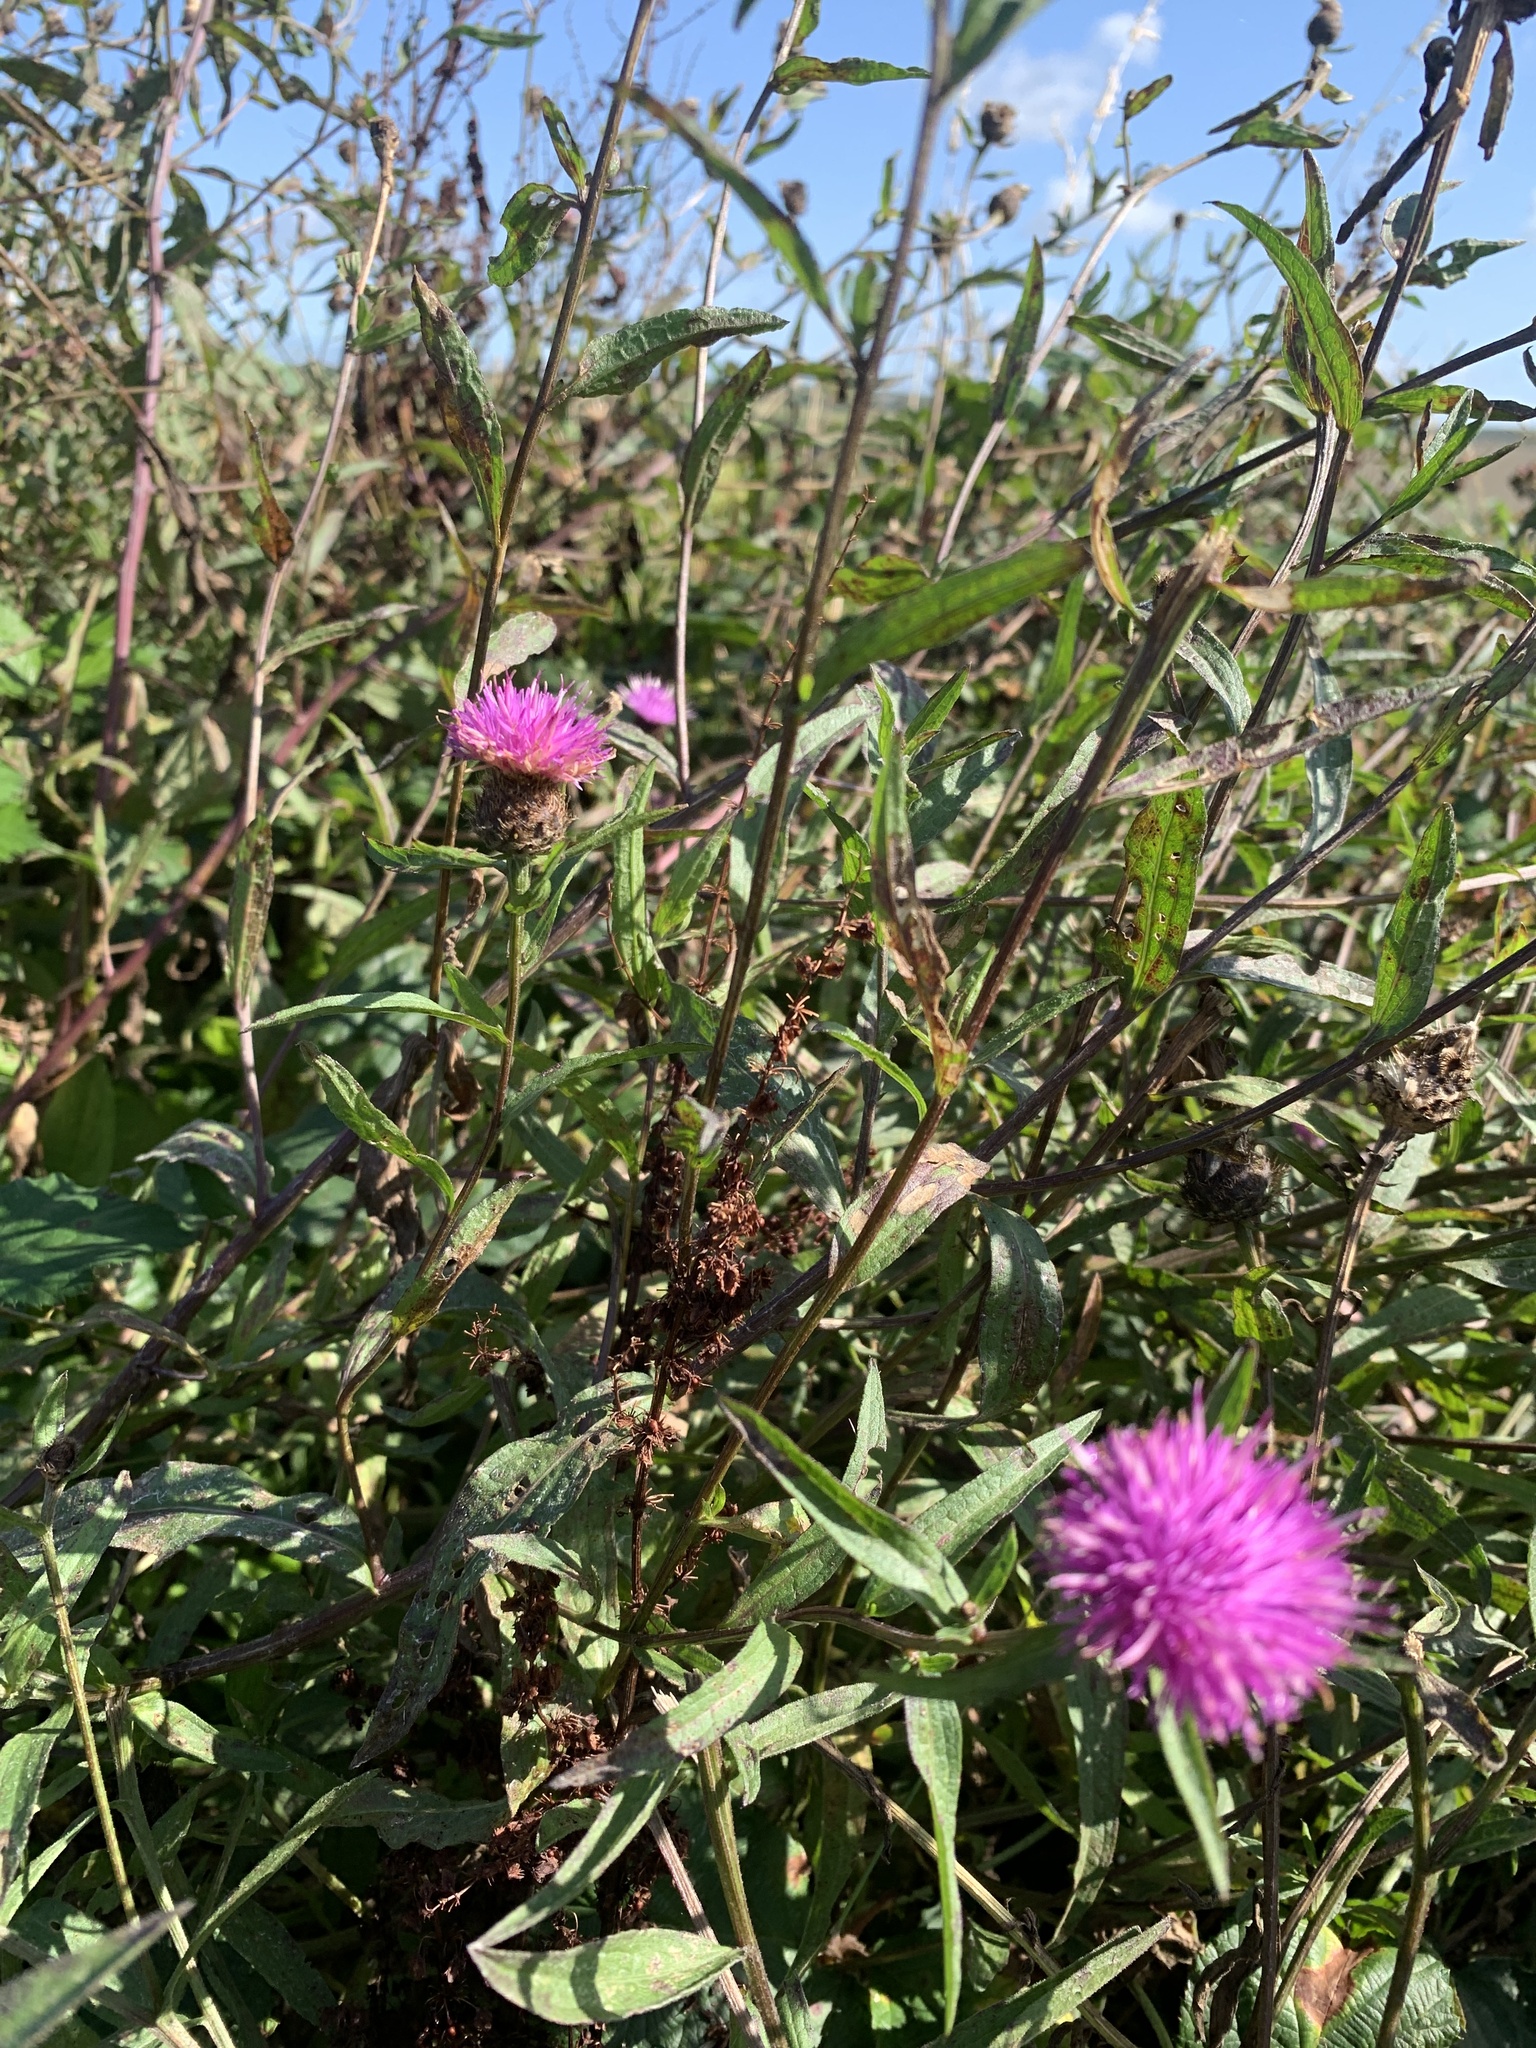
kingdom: Plantae
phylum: Tracheophyta
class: Magnoliopsida
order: Asterales
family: Asteraceae
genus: Centaurea
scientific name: Centaurea nigra
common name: Lesser knapweed
